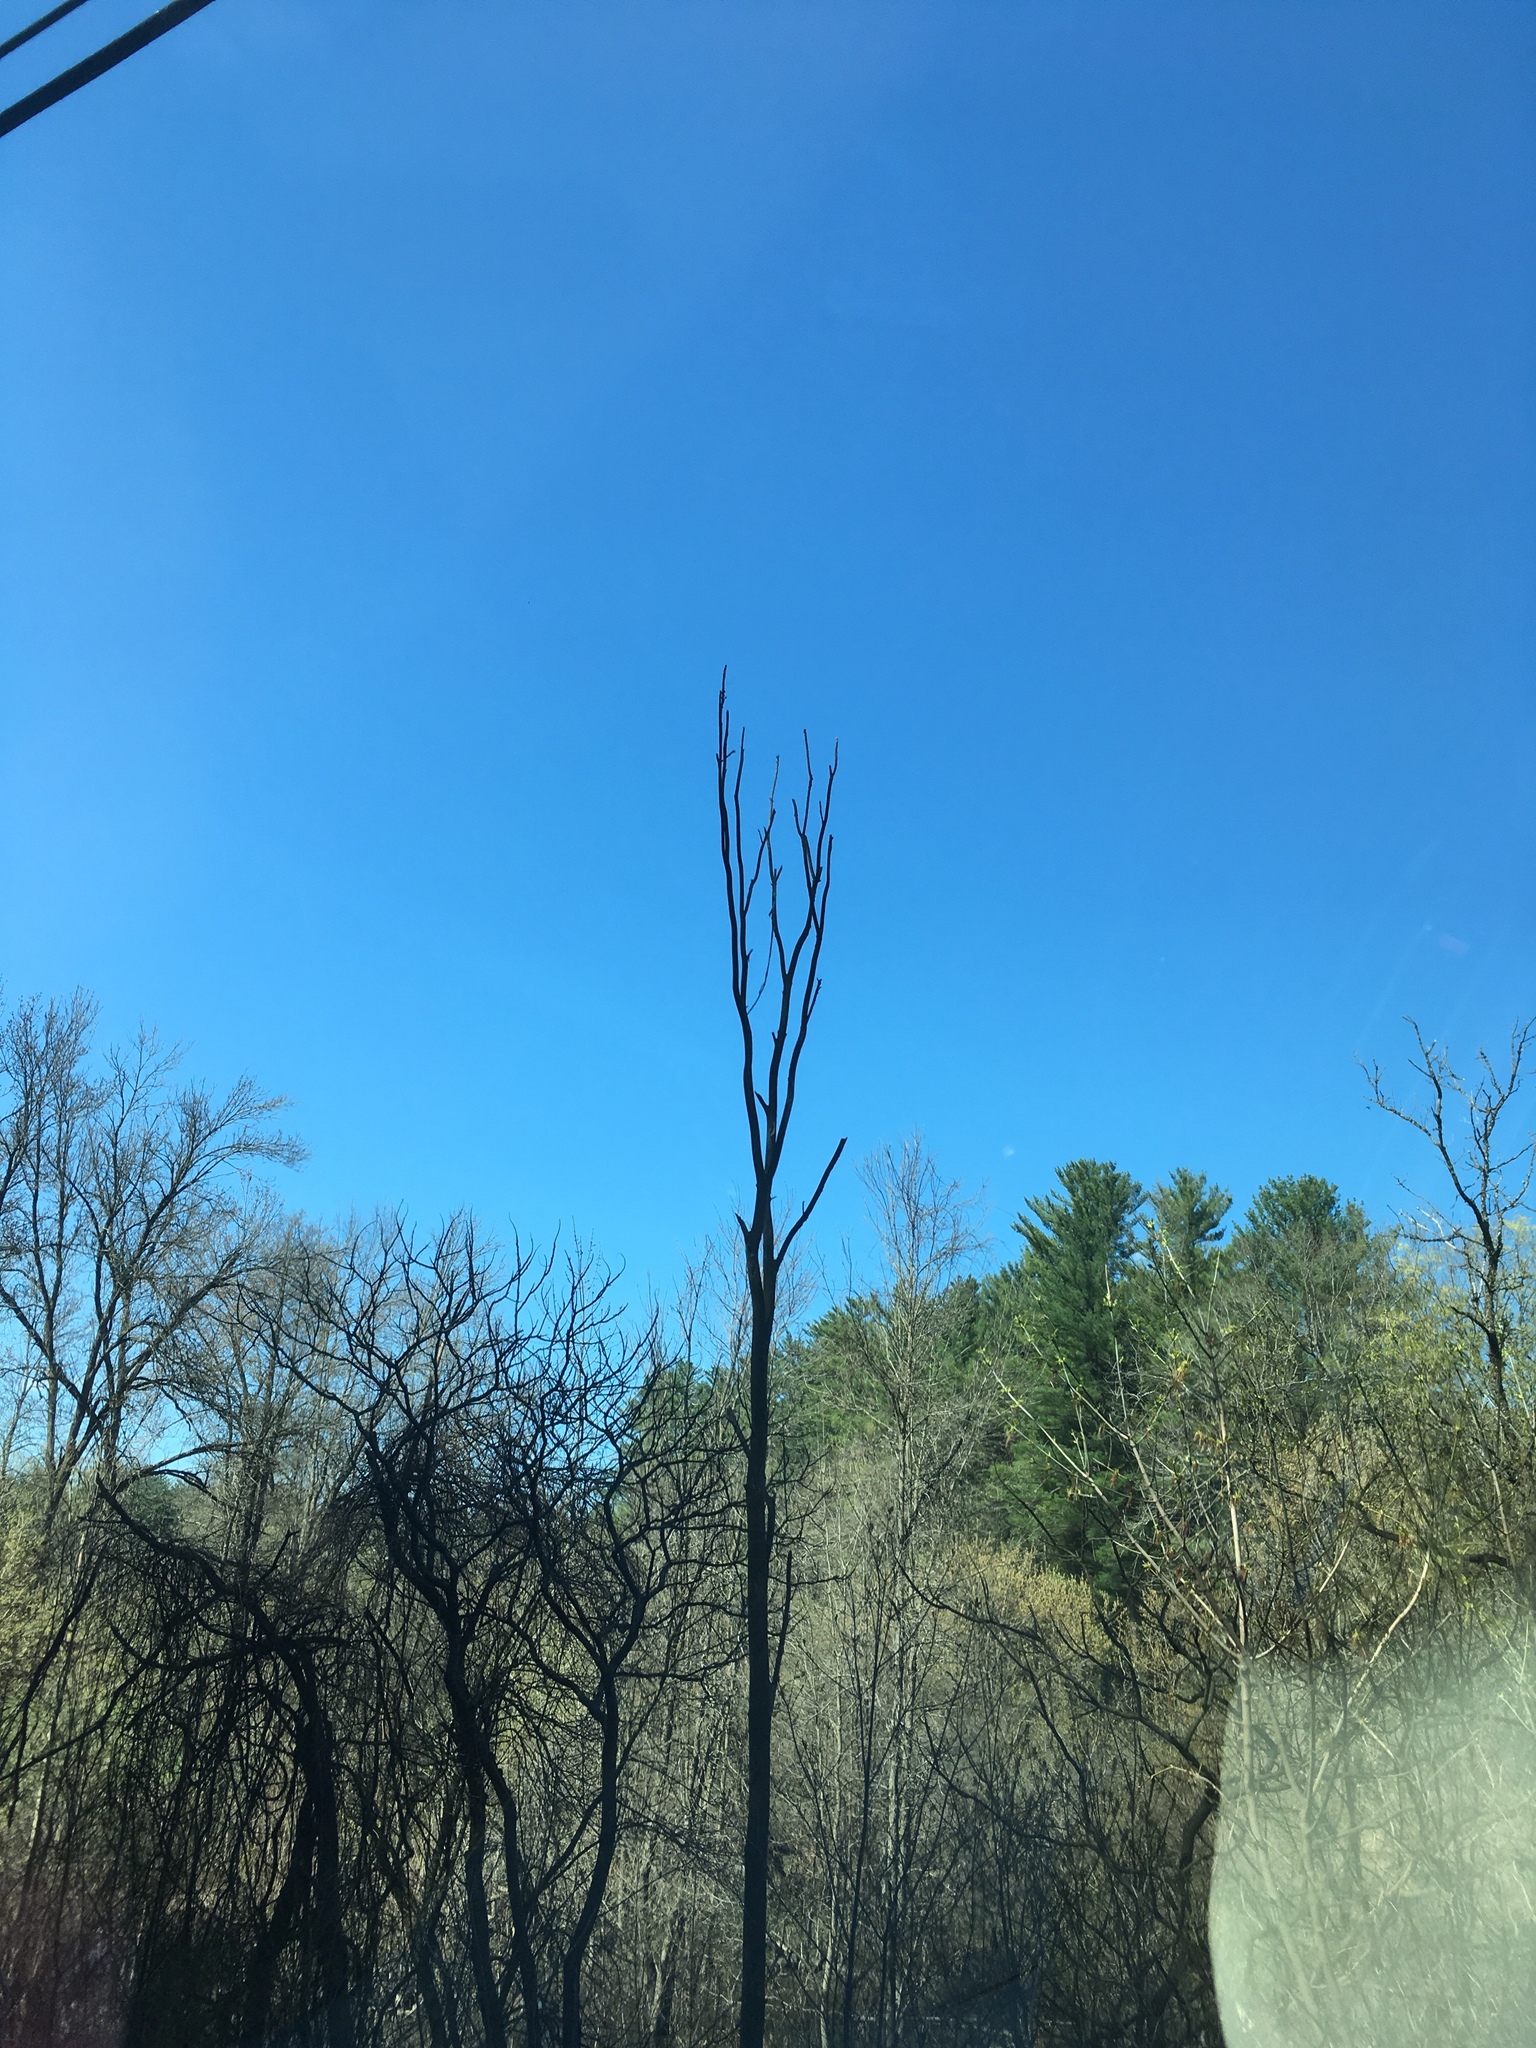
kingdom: Plantae
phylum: Tracheophyta
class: Magnoliopsida
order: Rosales
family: Ulmaceae
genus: Ulmus
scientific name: Ulmus americana
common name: American elm
